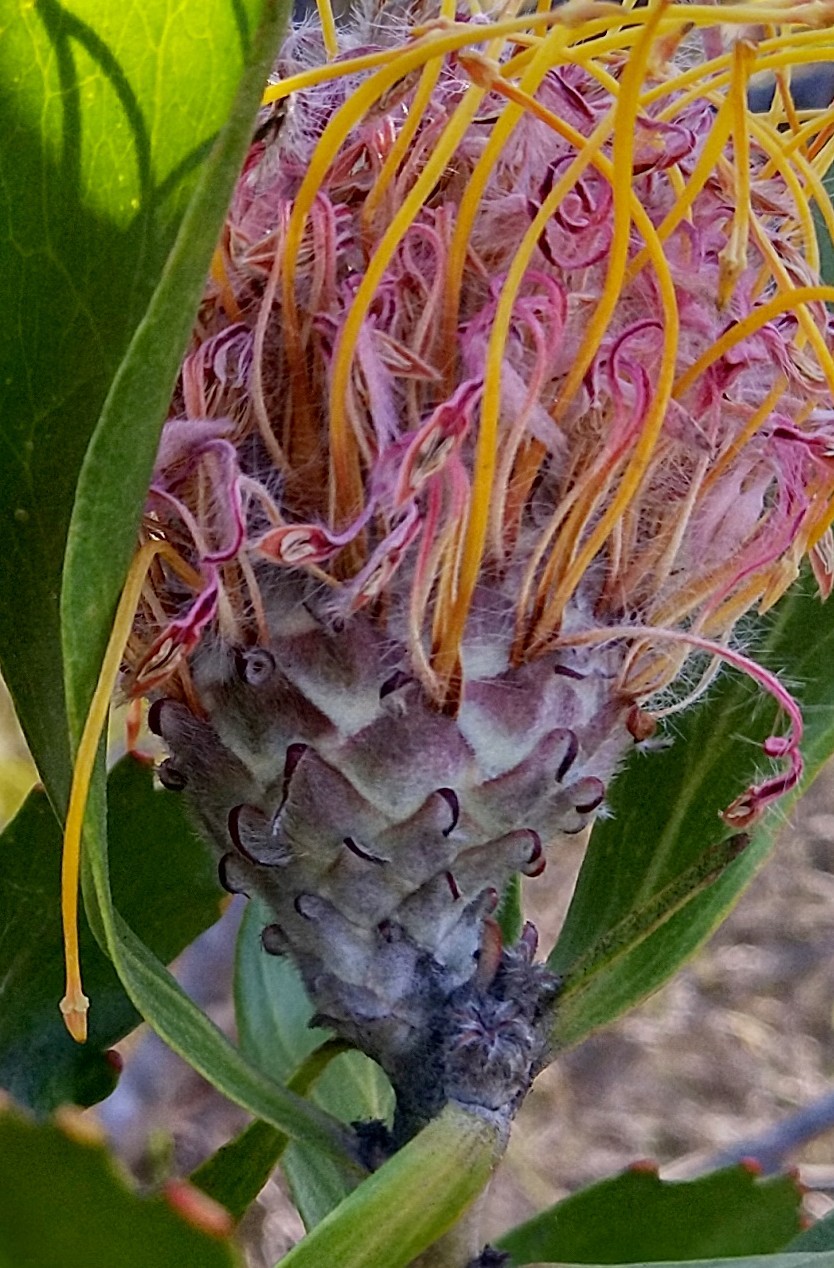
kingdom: Plantae
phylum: Tracheophyta
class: Magnoliopsida
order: Proteales
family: Proteaceae
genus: Leucospermum
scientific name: Leucospermum glabrum
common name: Outeniqua pincushion
